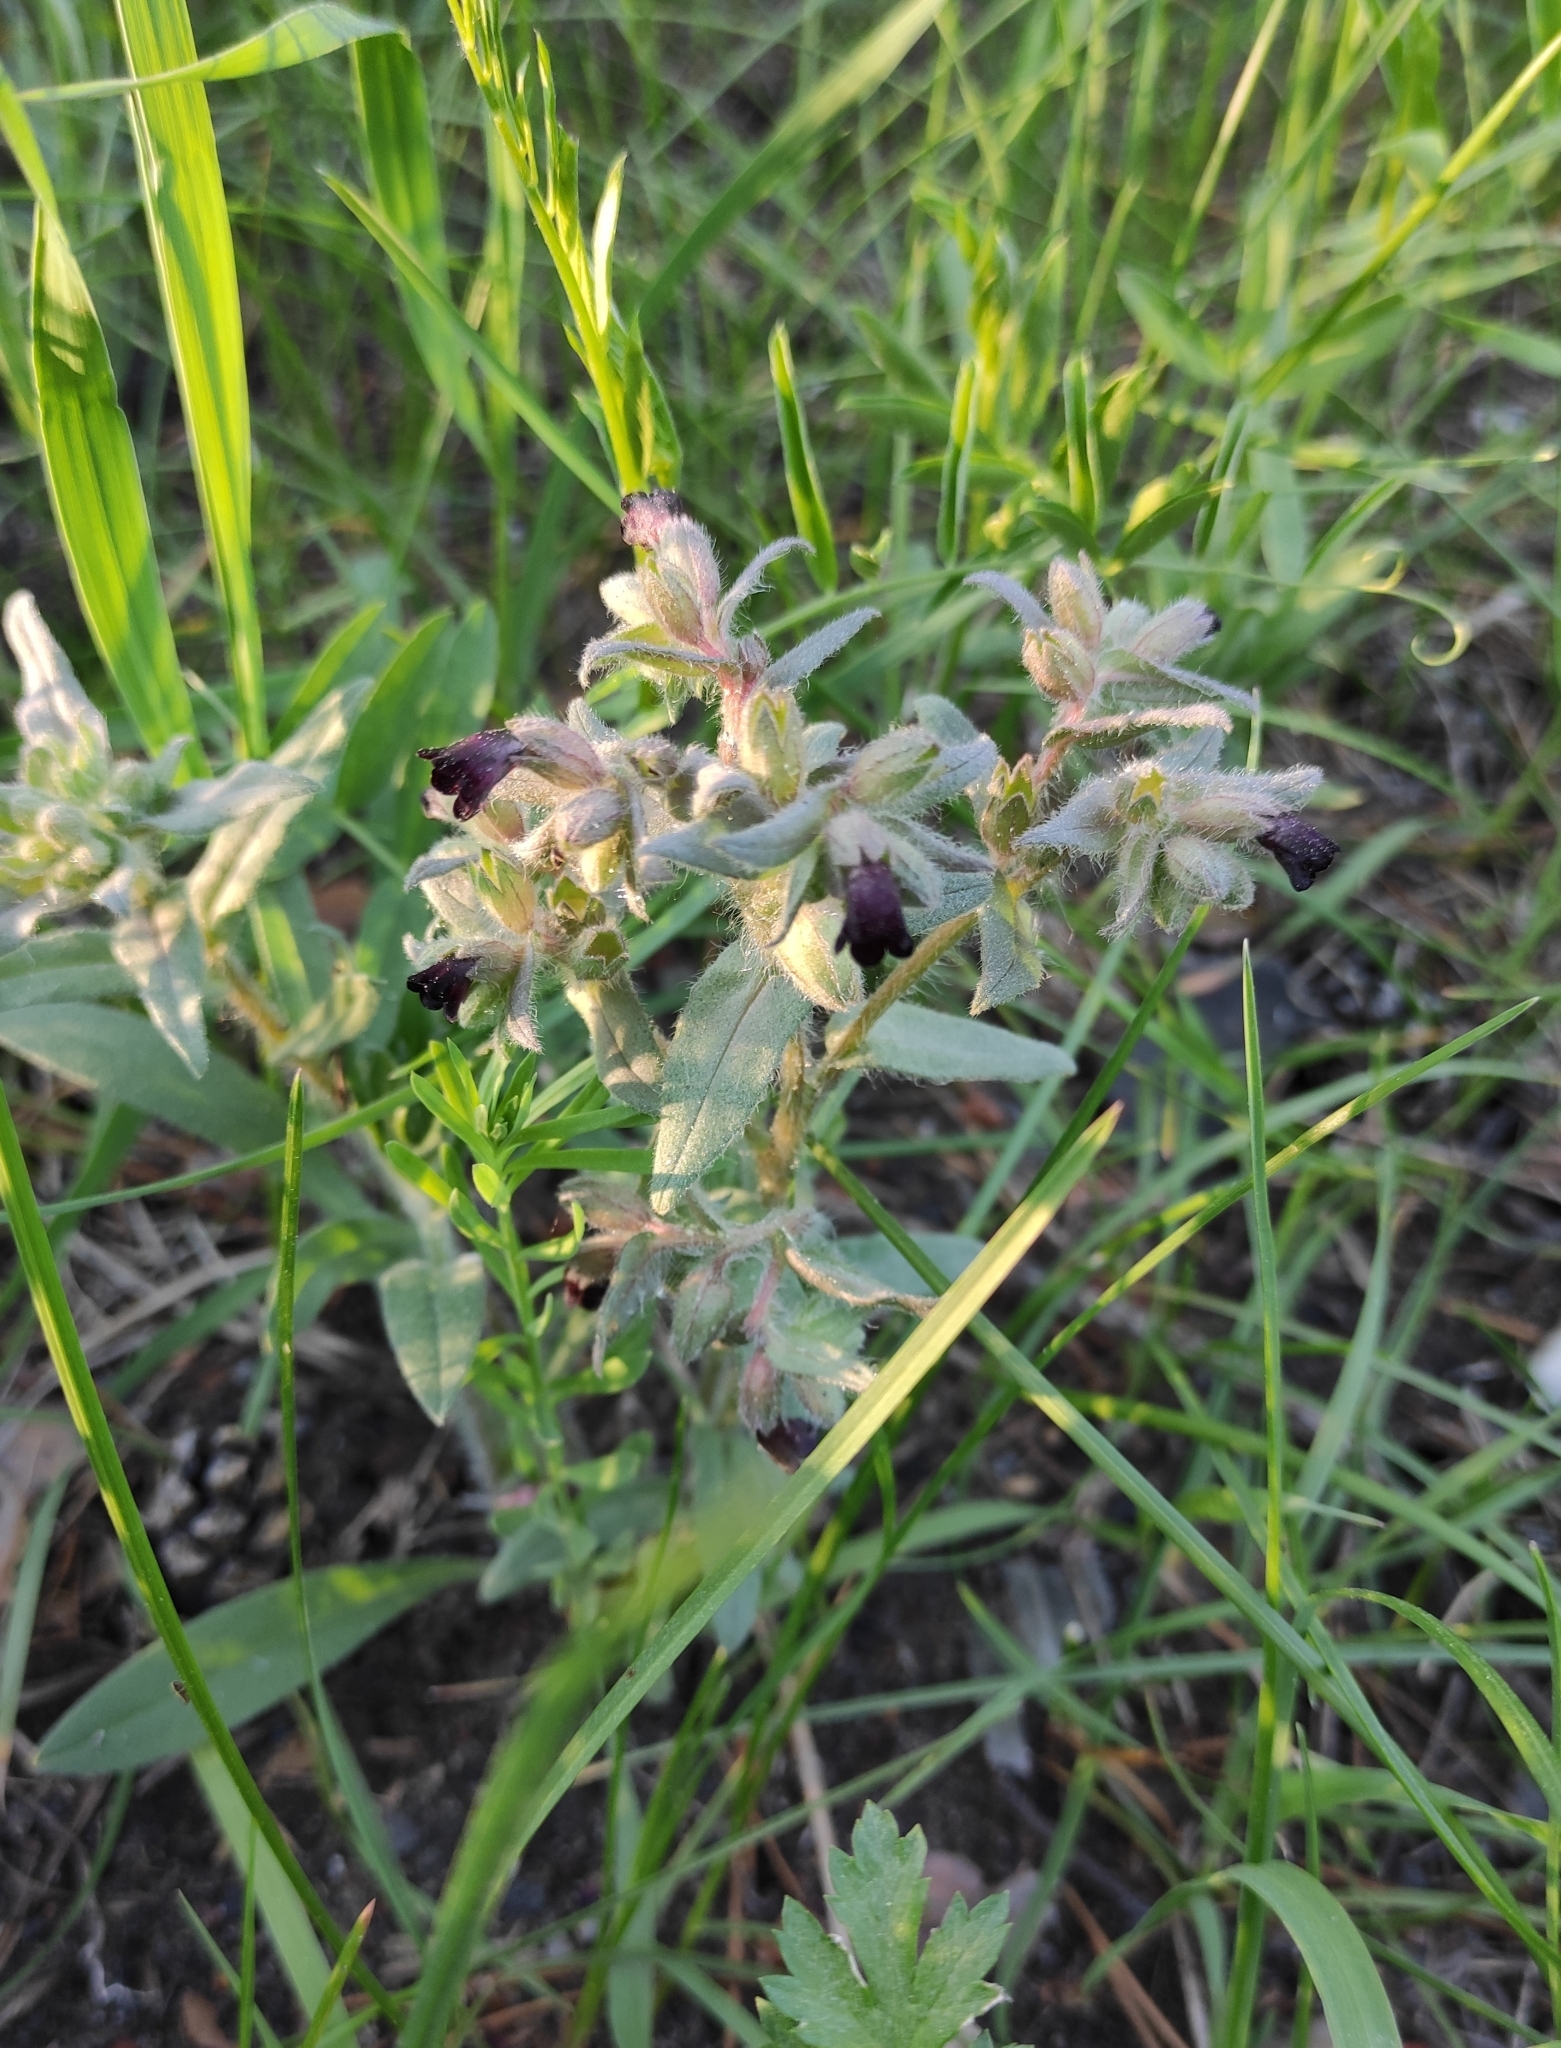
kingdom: Plantae
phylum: Tracheophyta
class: Magnoliopsida
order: Boraginales
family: Boraginaceae
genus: Nonea
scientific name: Nonea pulla
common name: Brown nonea
